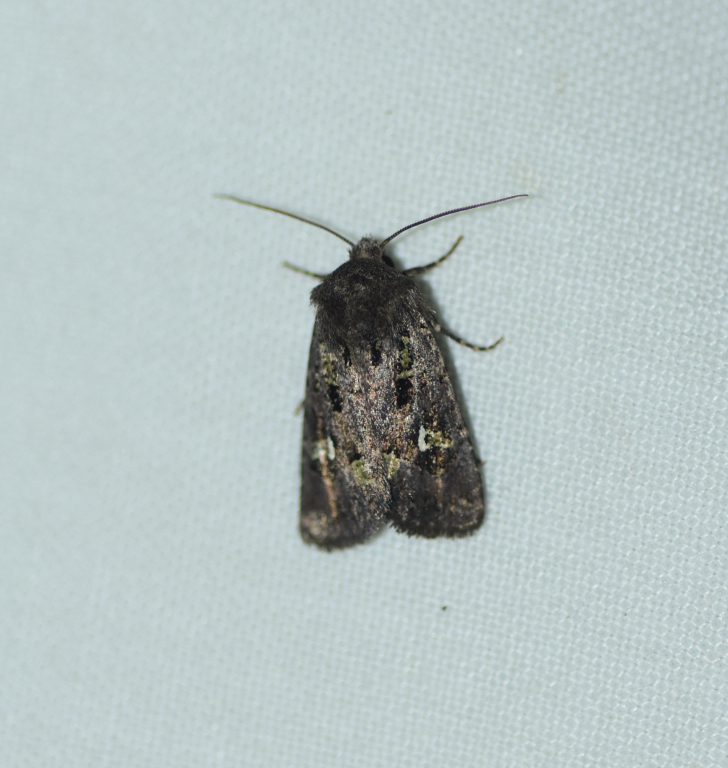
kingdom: Animalia
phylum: Arthropoda
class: Insecta
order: Lepidoptera
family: Noctuidae
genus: Lacinipolia
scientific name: Lacinipolia renigera
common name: Kidney-spotted minor
